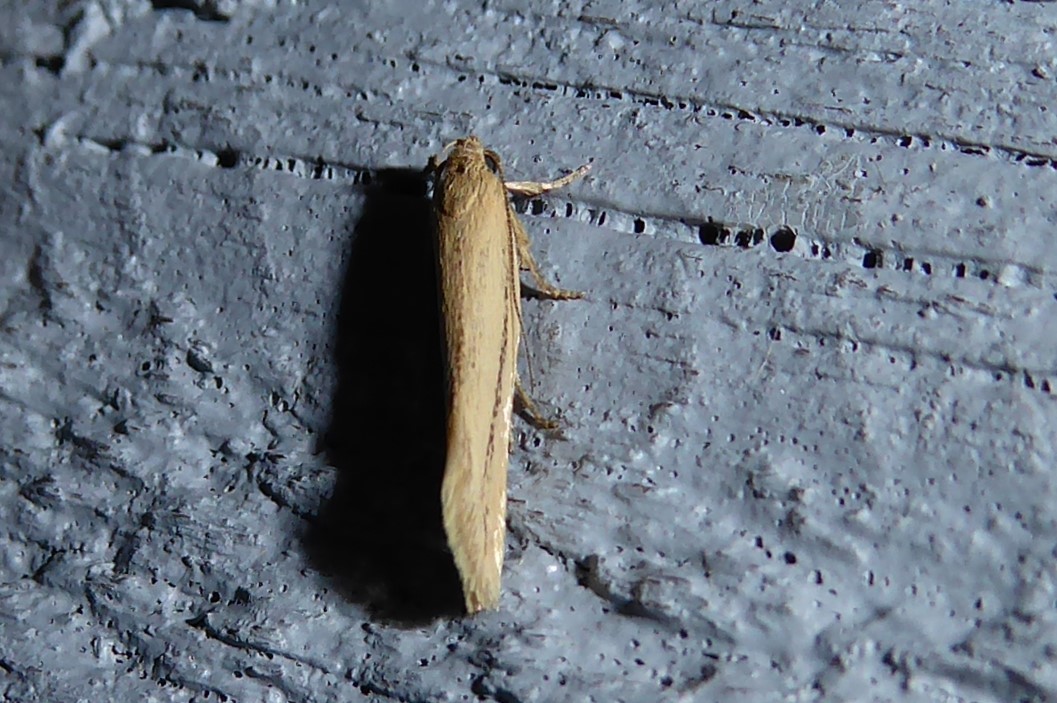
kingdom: Animalia
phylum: Arthropoda
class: Insecta
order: Lepidoptera
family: Oecophoridae
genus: Tingena
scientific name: Tingena maranta
